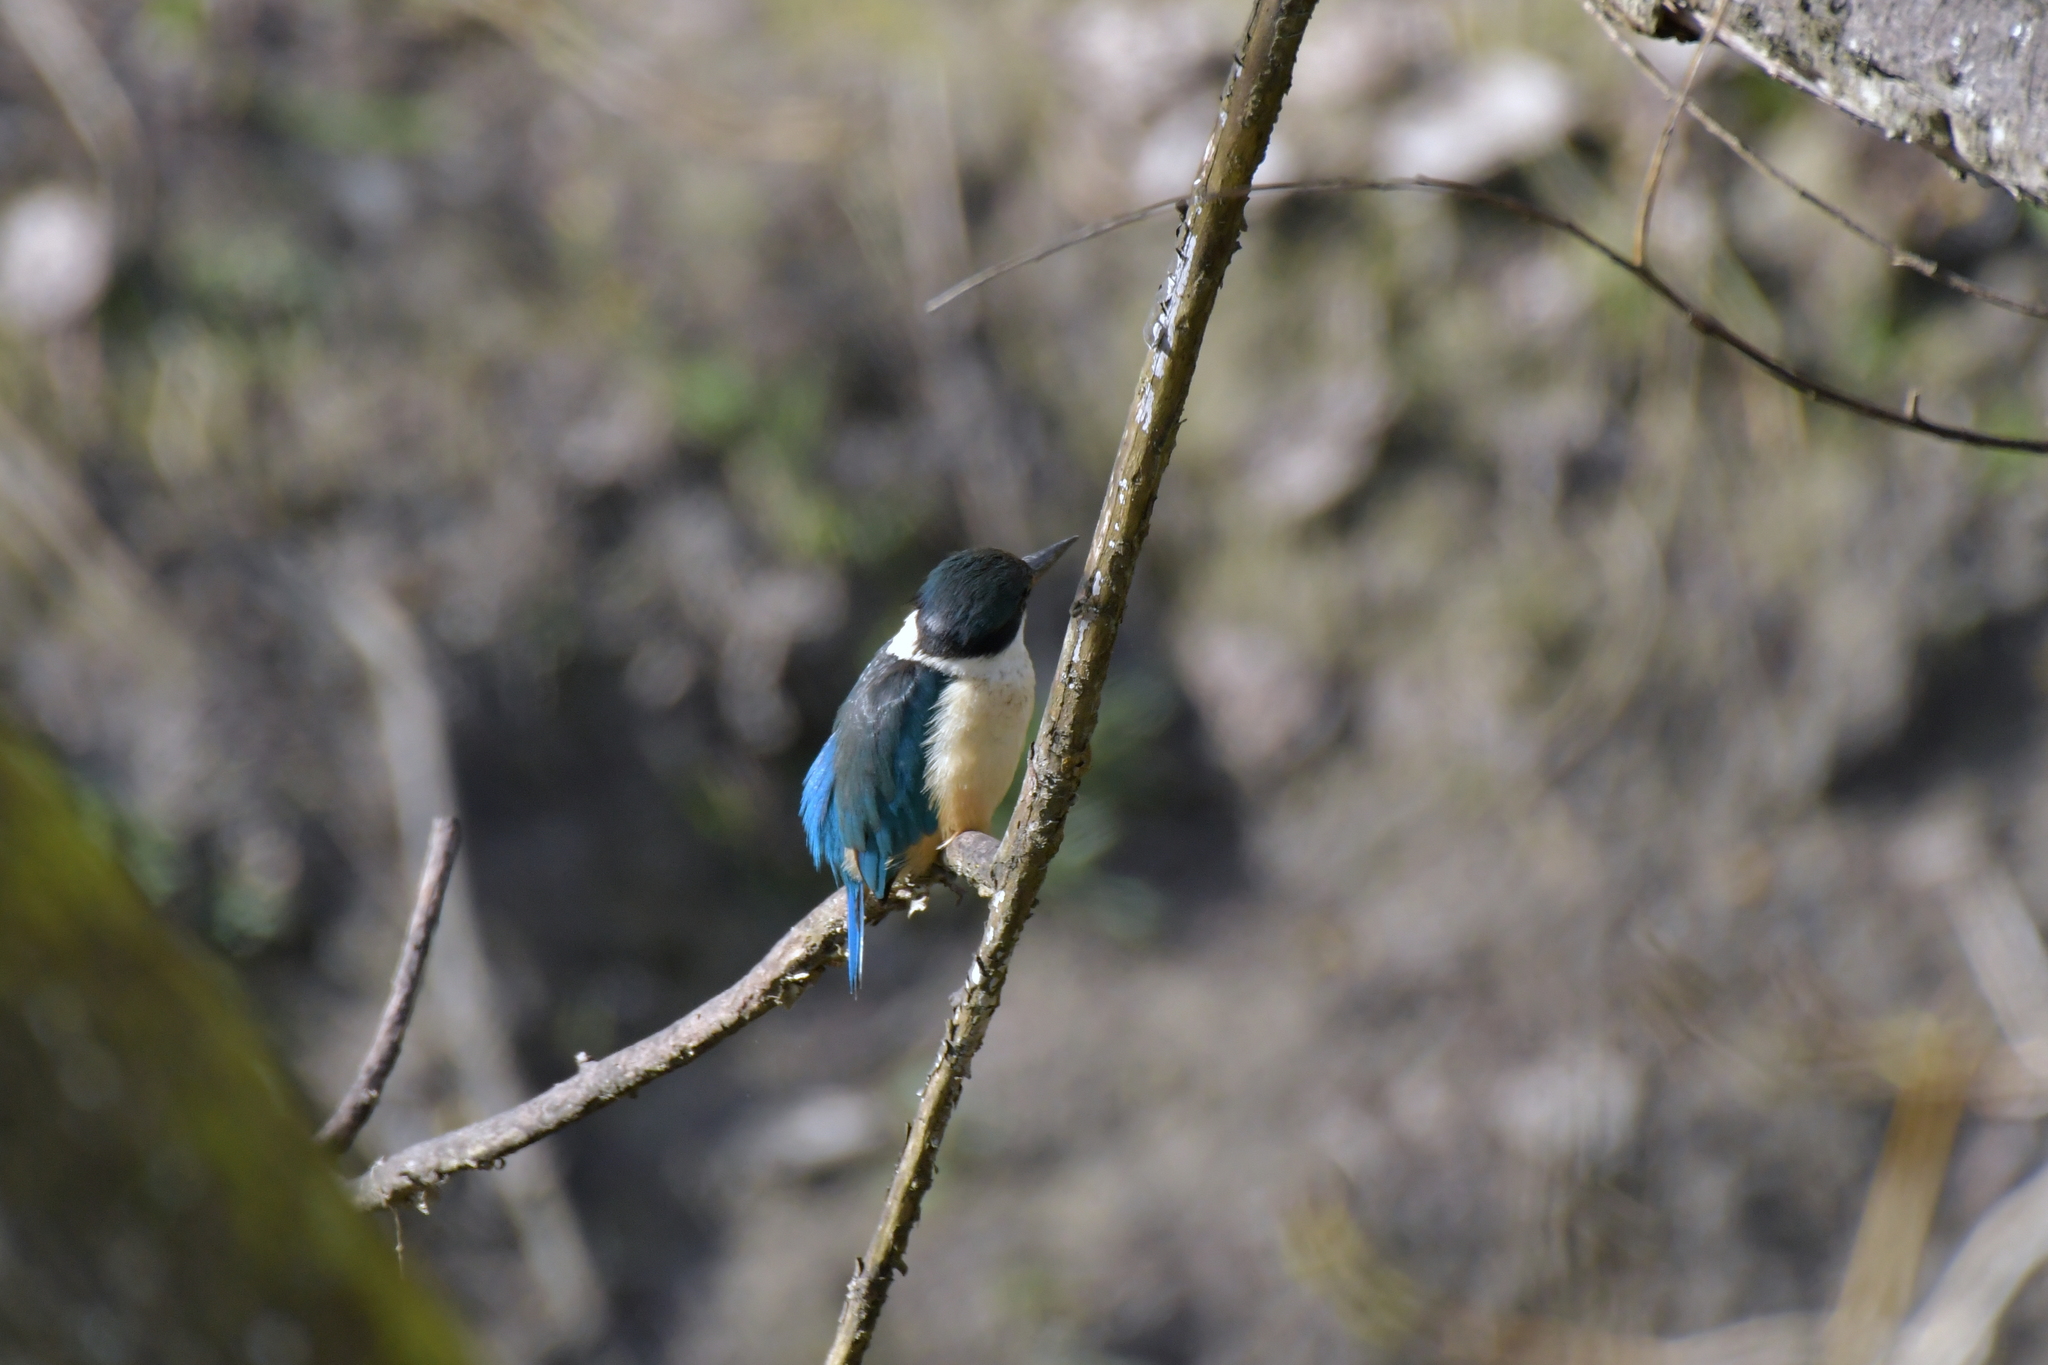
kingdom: Animalia
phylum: Chordata
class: Aves
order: Coraciiformes
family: Alcedinidae
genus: Todiramphus
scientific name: Todiramphus sanctus
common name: Sacred kingfisher
